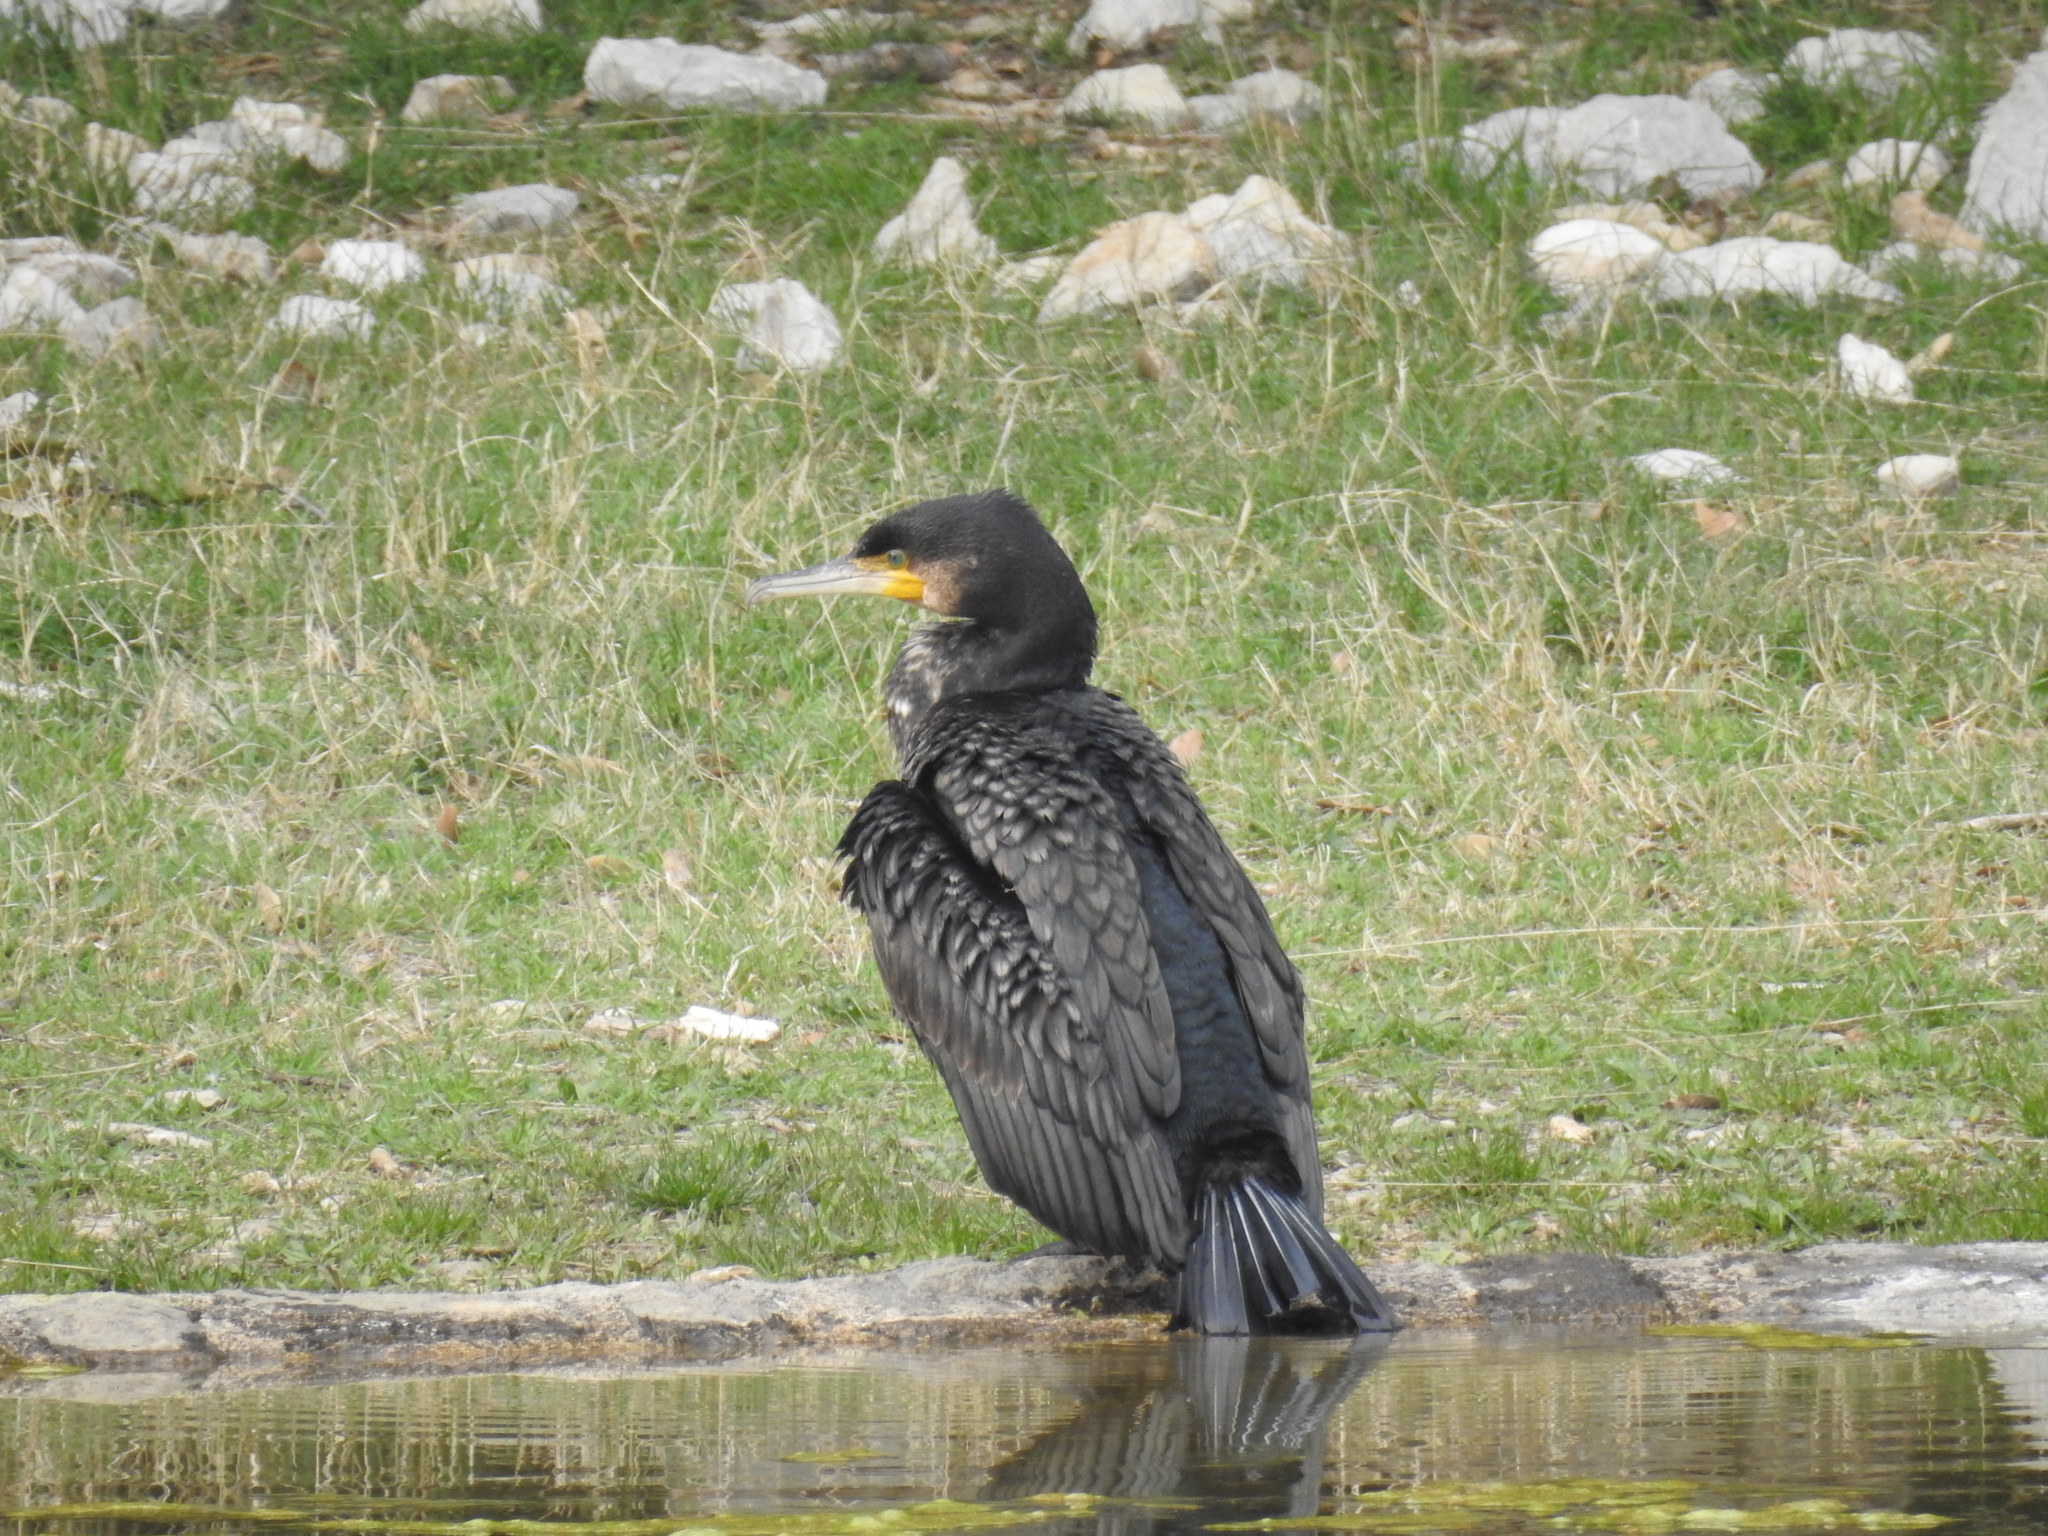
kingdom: Animalia
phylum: Chordata
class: Aves
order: Suliformes
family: Phalacrocoracidae
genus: Phalacrocorax
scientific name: Phalacrocorax carbo
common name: Great cormorant
